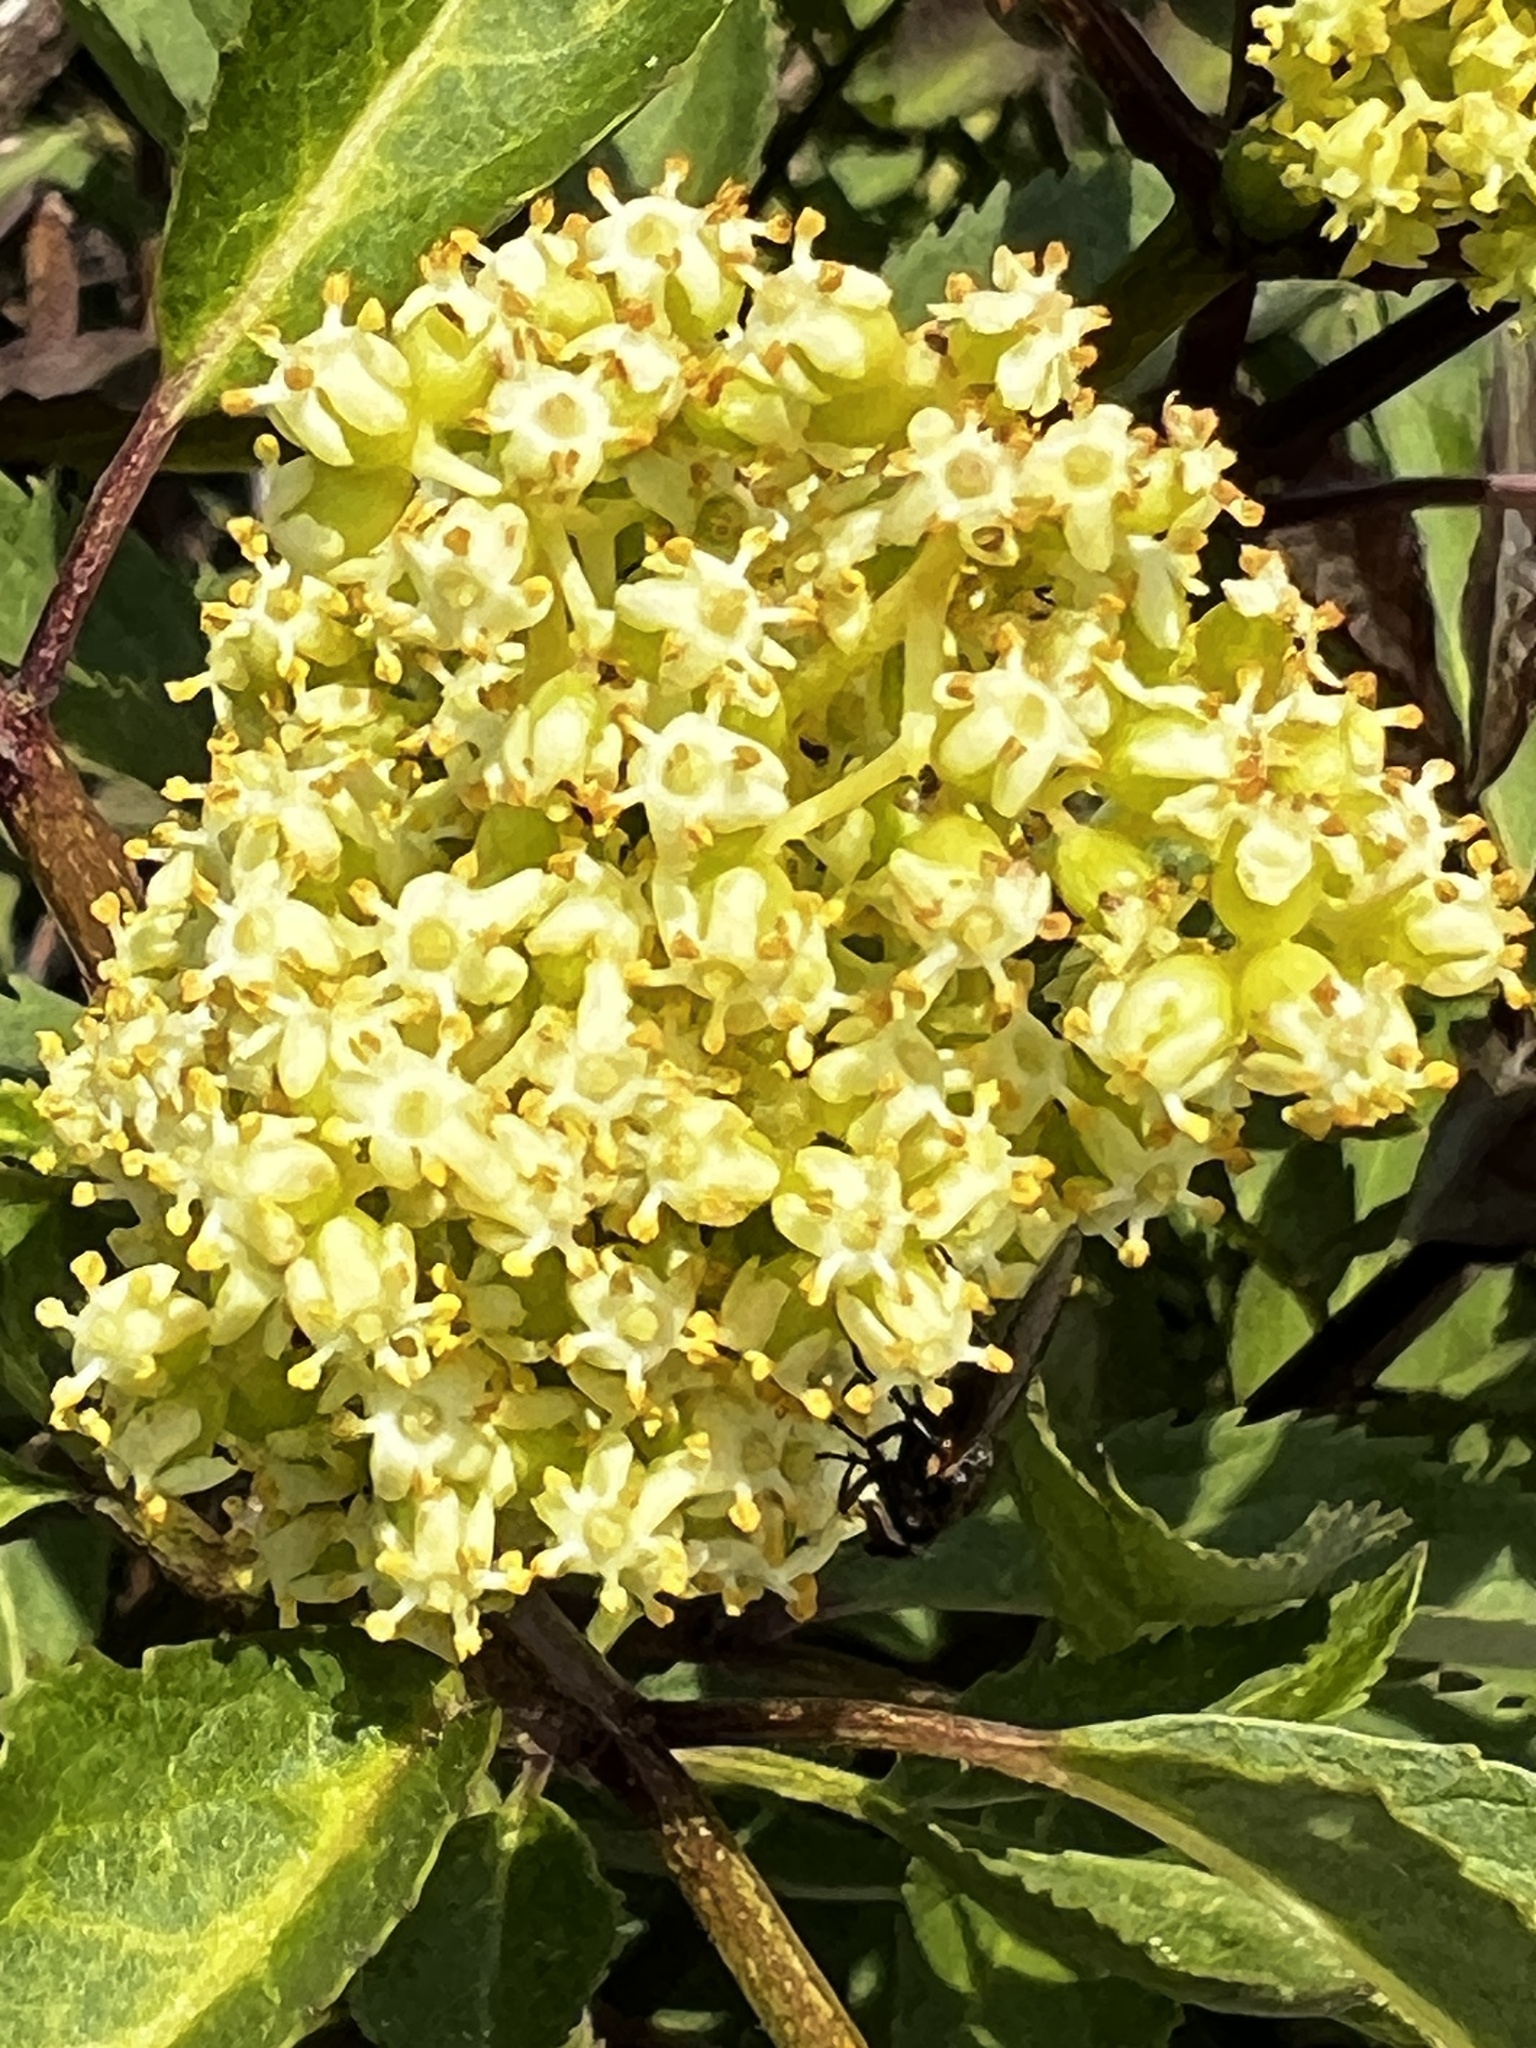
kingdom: Plantae
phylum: Tracheophyta
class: Magnoliopsida
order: Dipsacales
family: Viburnaceae
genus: Sambucus
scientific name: Sambucus racemosa
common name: Red-berried elder
